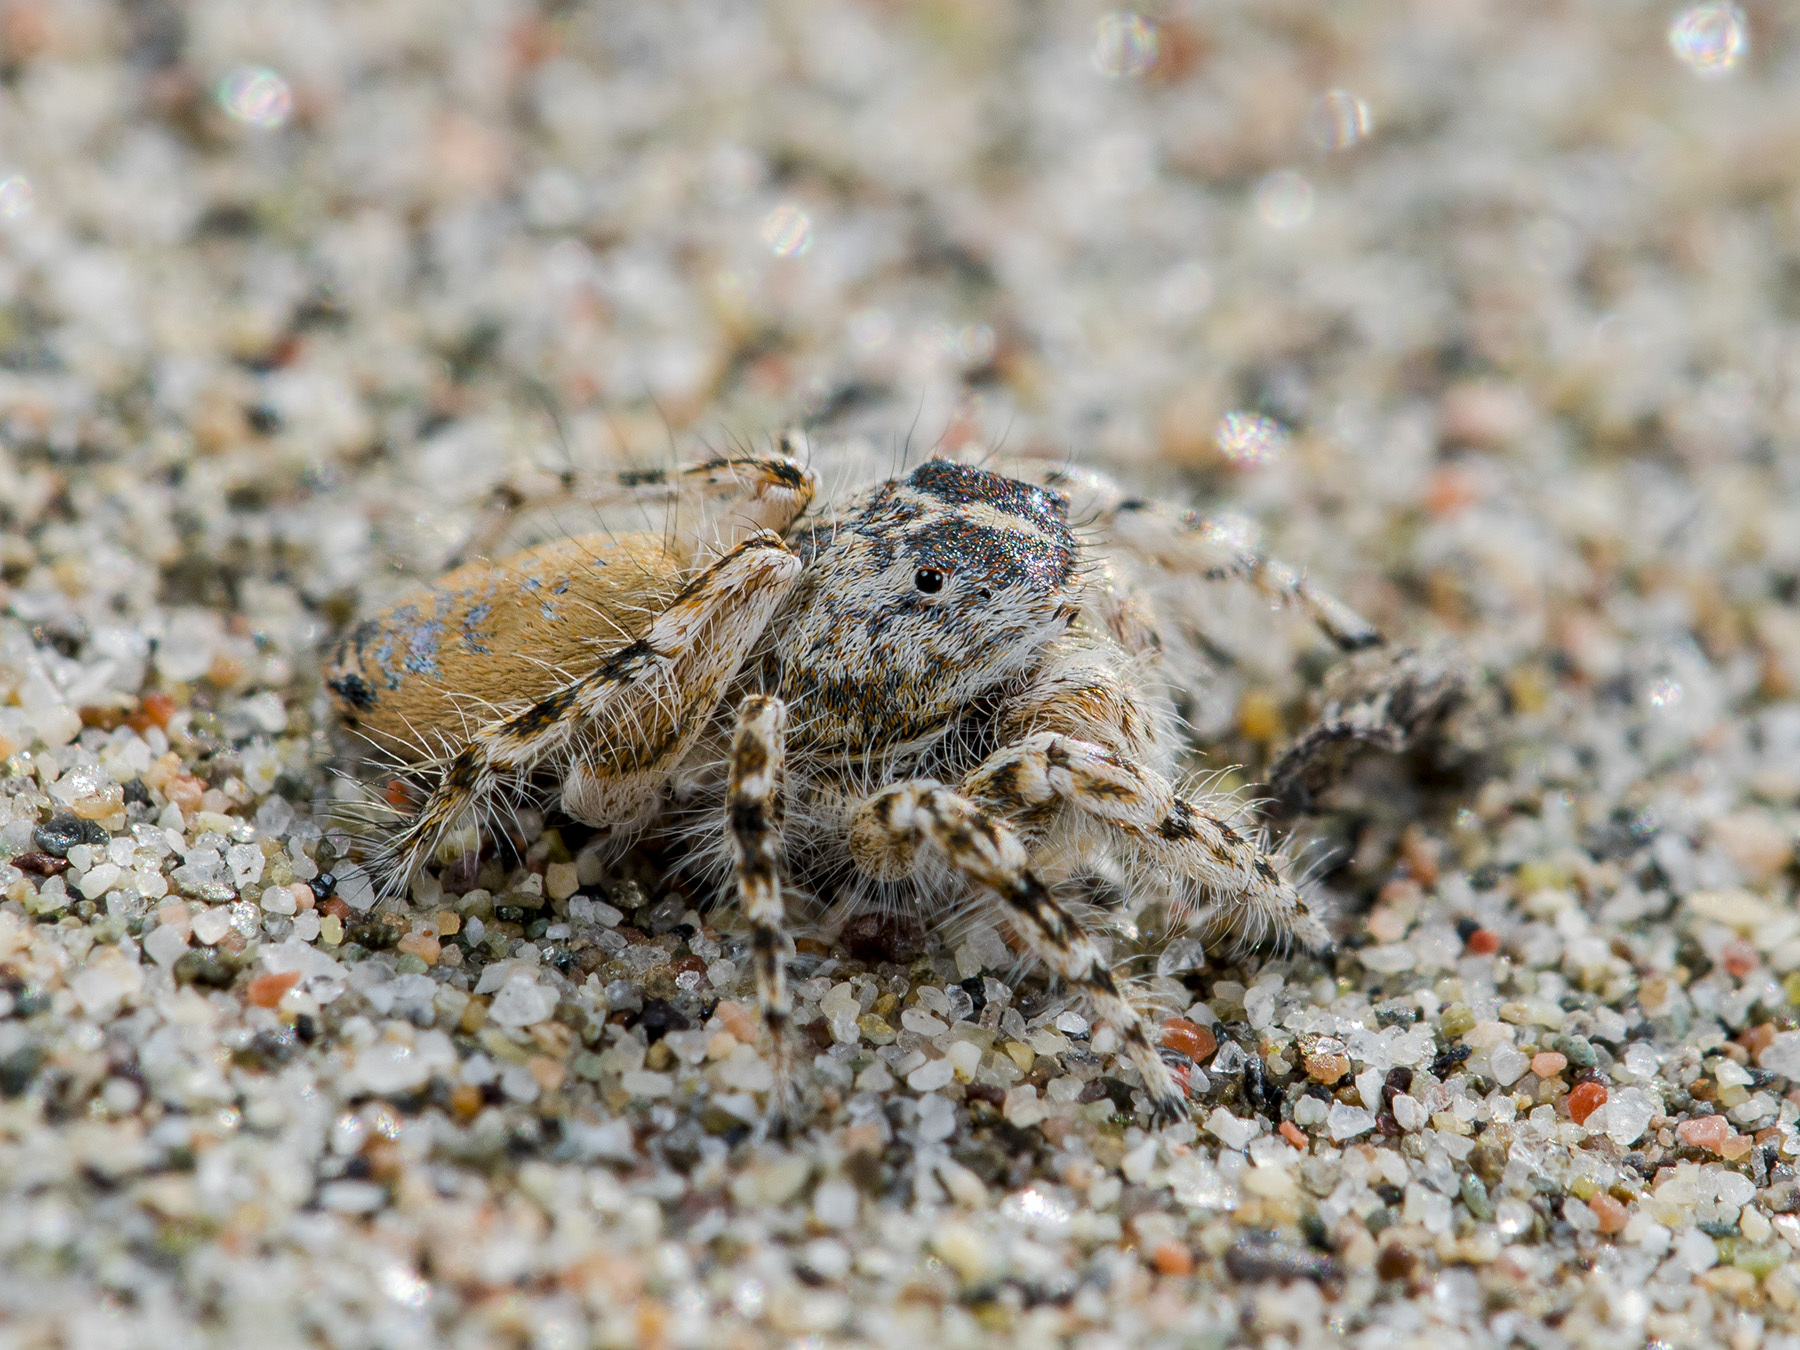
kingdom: Animalia
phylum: Arthropoda
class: Arachnida
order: Araneae
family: Salticidae
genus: Yllenus
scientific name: Yllenus turkestanicus
